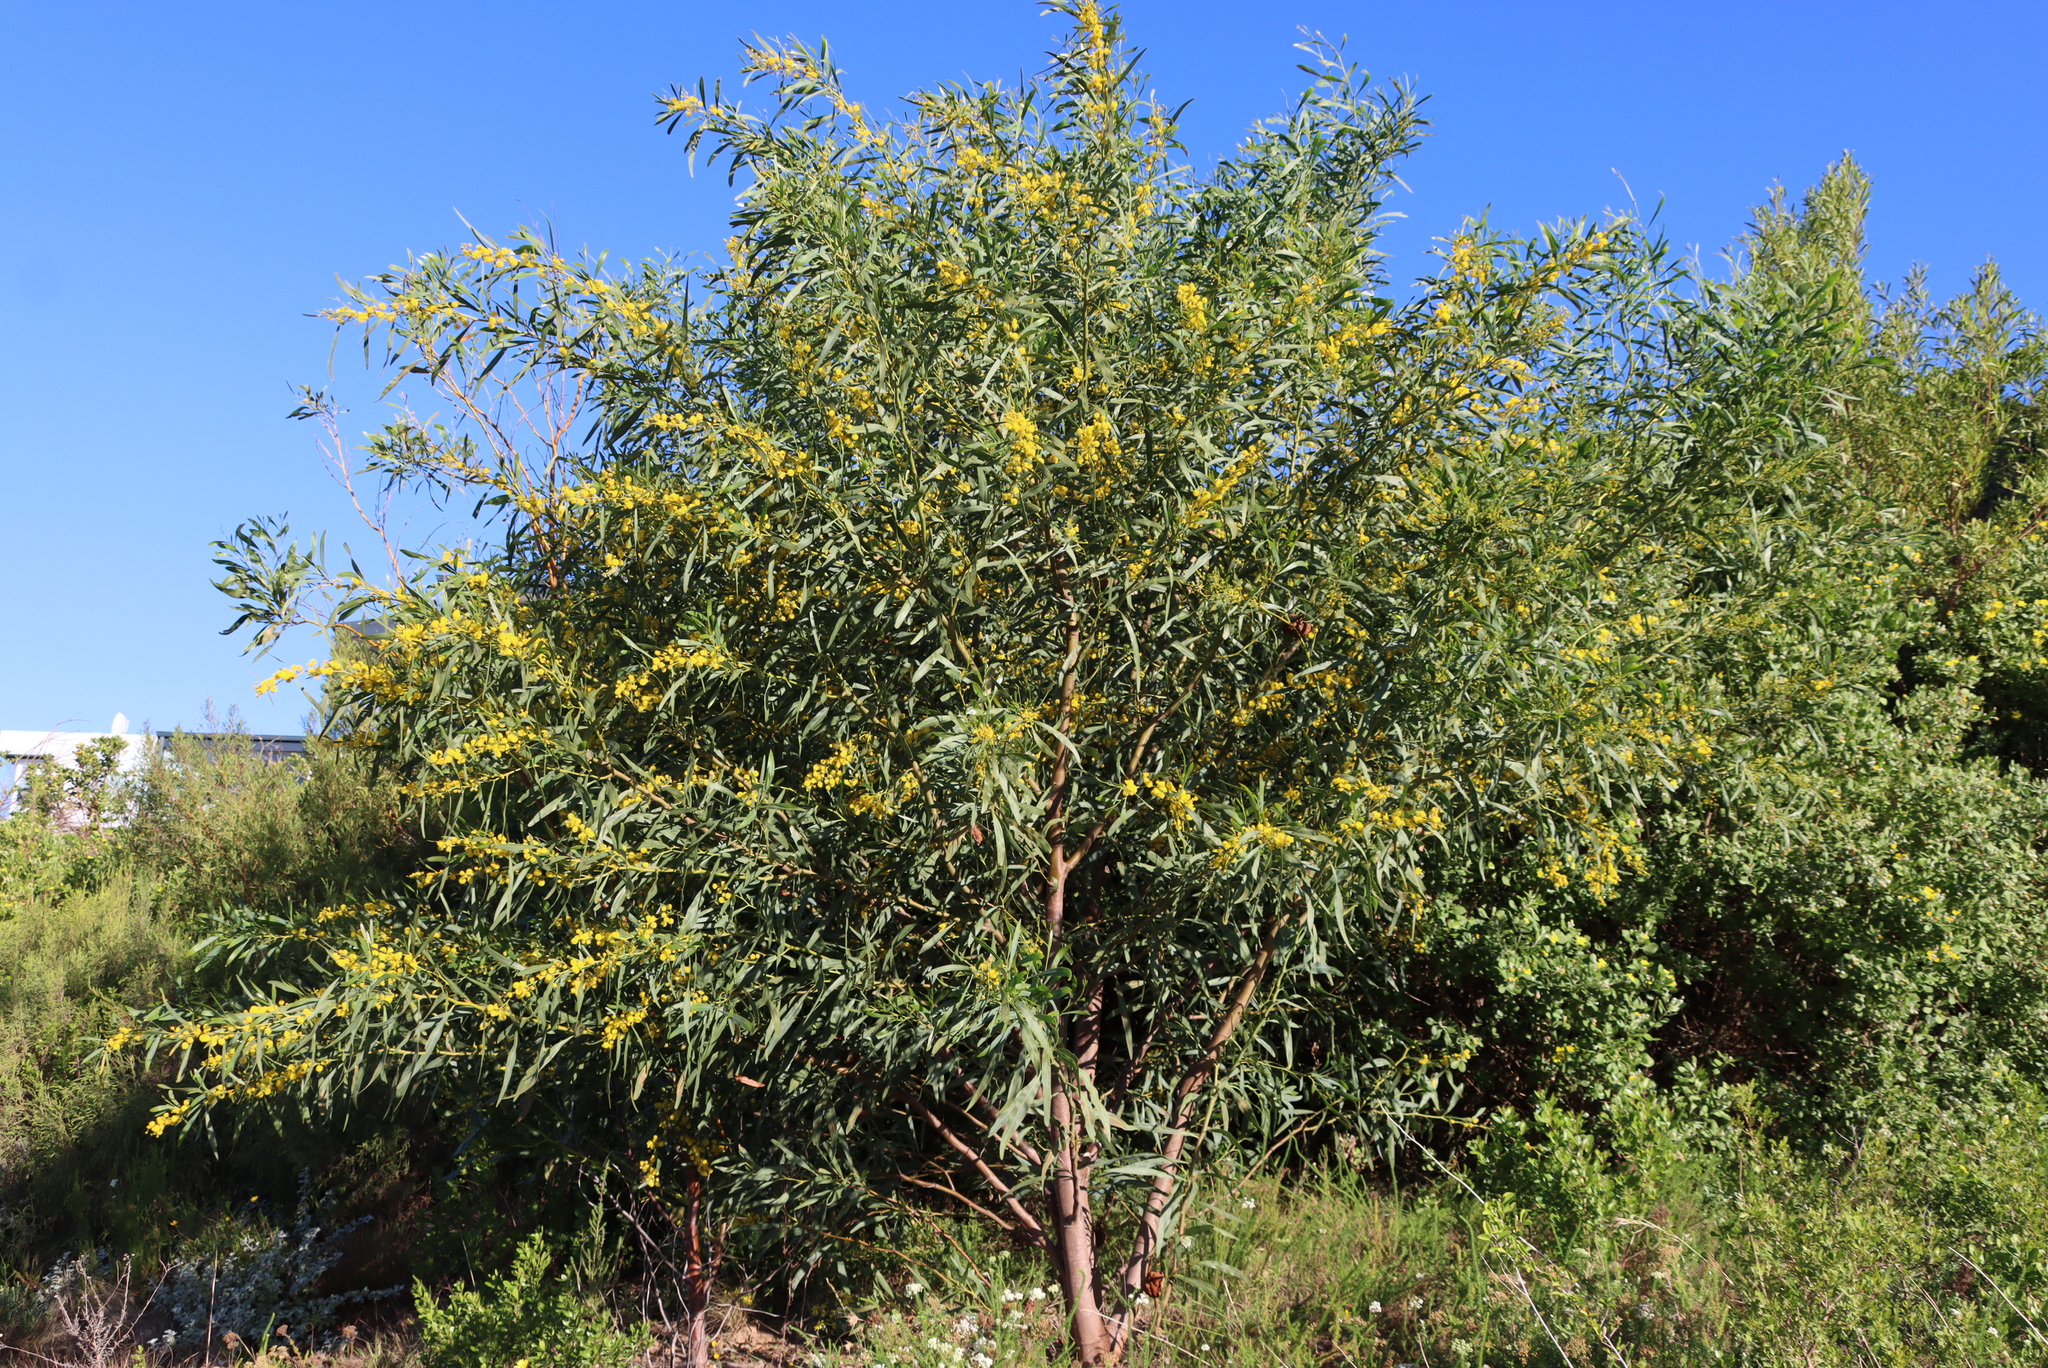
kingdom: Plantae
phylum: Tracheophyta
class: Magnoliopsida
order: Fabales
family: Fabaceae
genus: Acacia
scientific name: Acacia saligna
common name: Orange wattle
